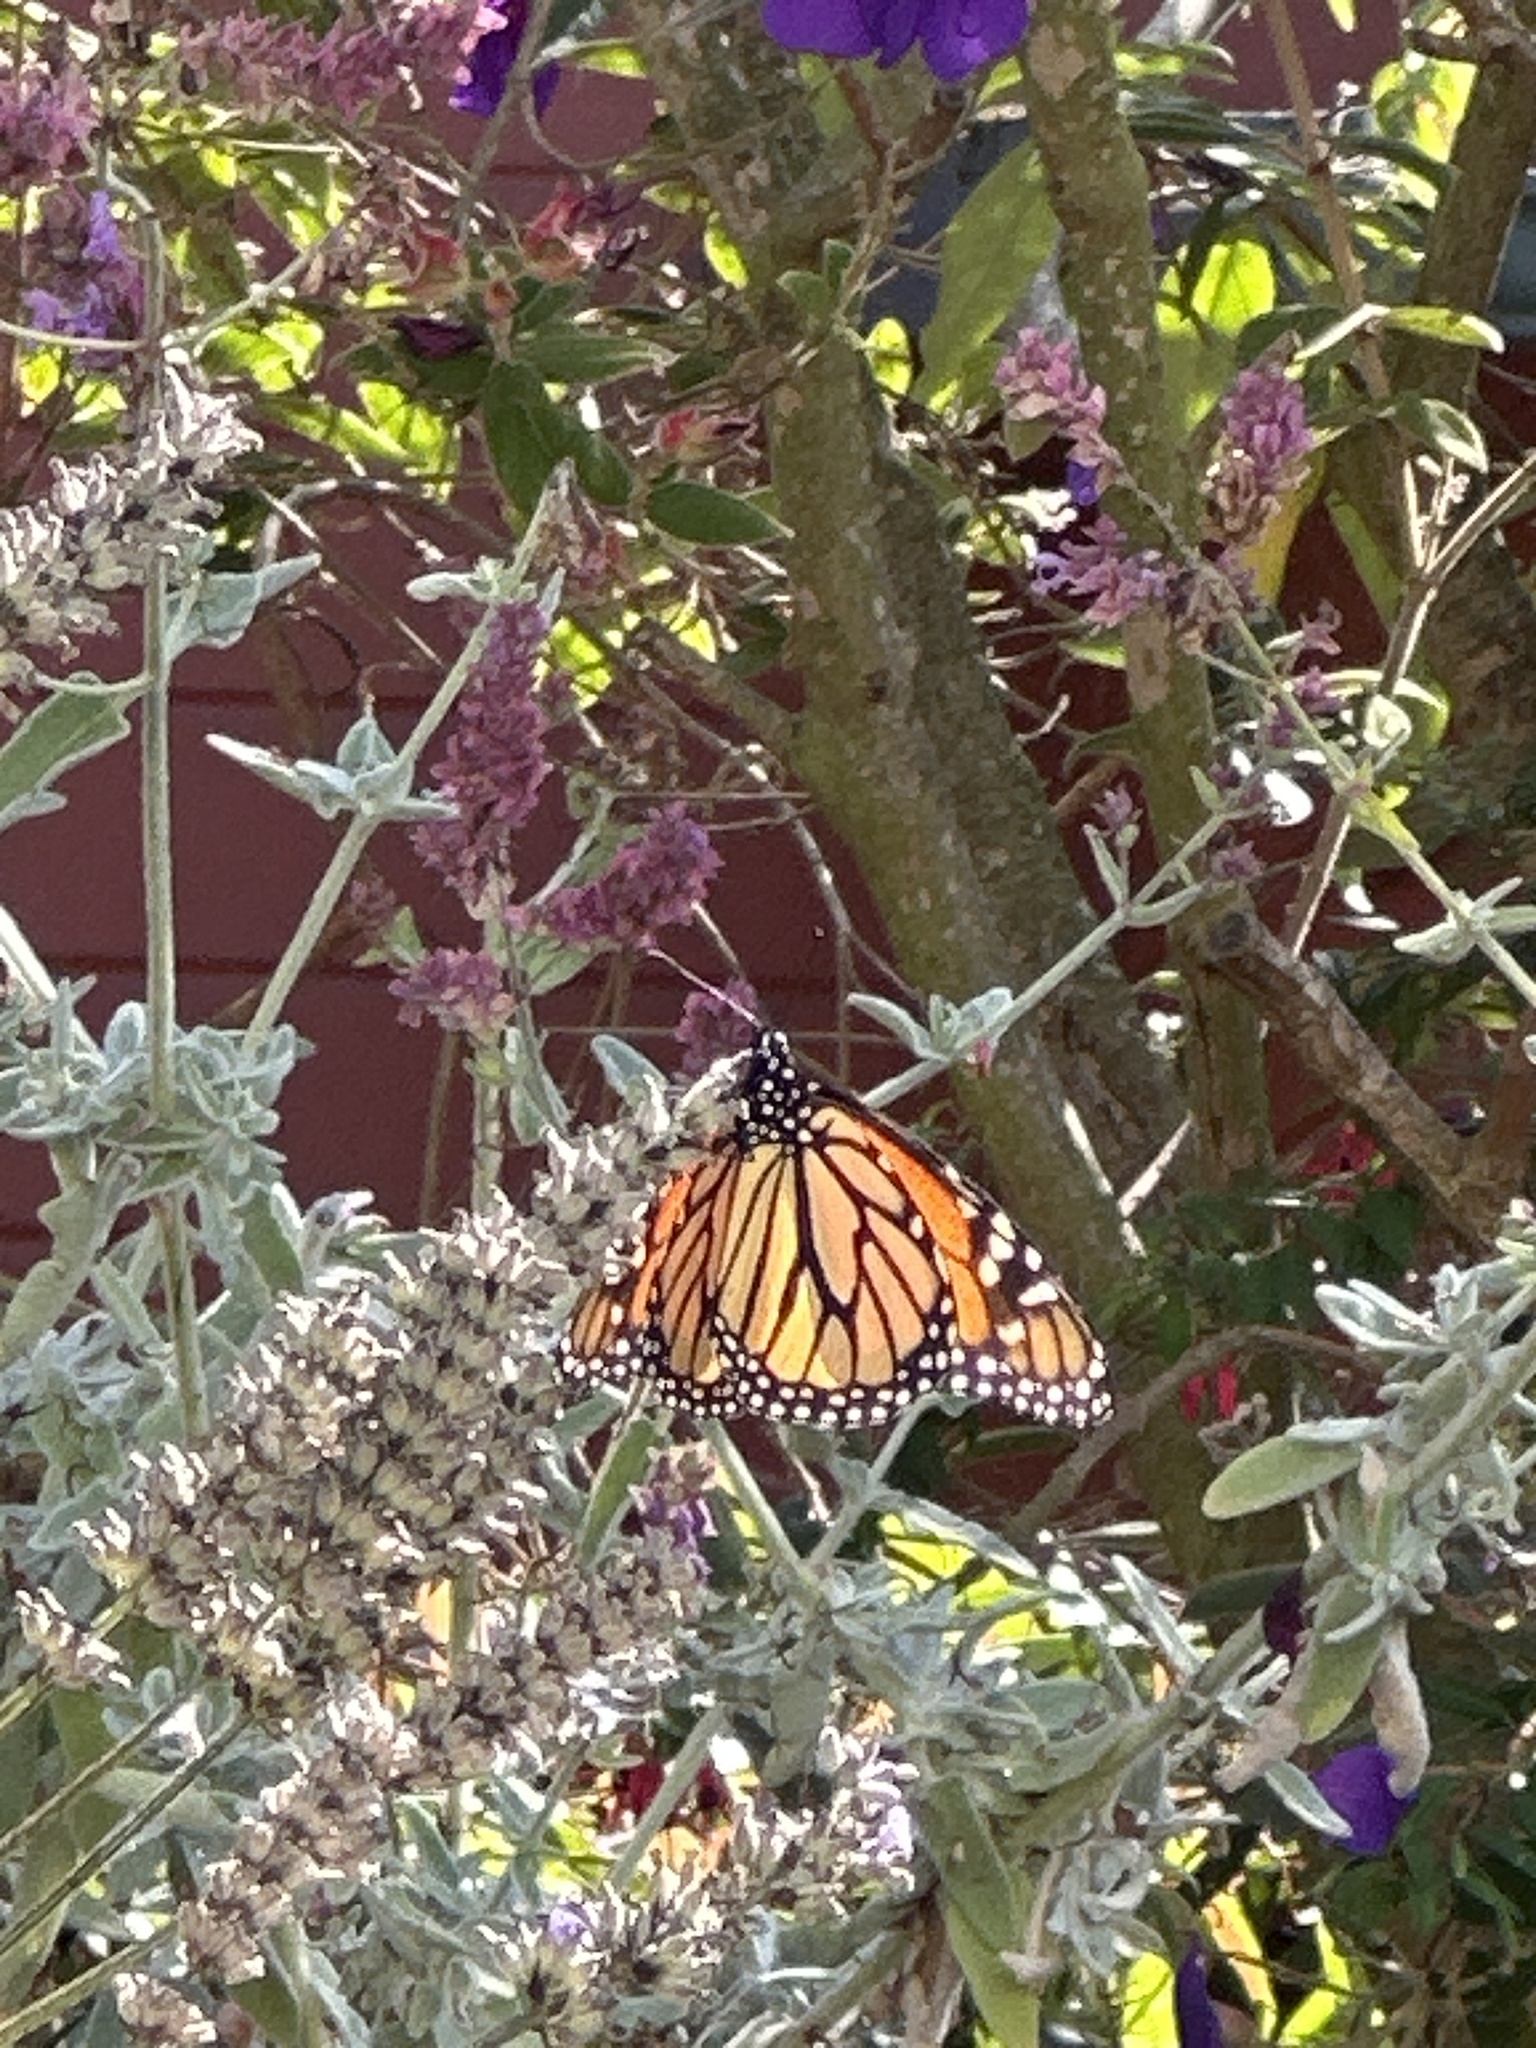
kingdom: Animalia
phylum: Arthropoda
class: Insecta
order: Lepidoptera
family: Nymphalidae
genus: Danaus
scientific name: Danaus plexippus
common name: Monarch
